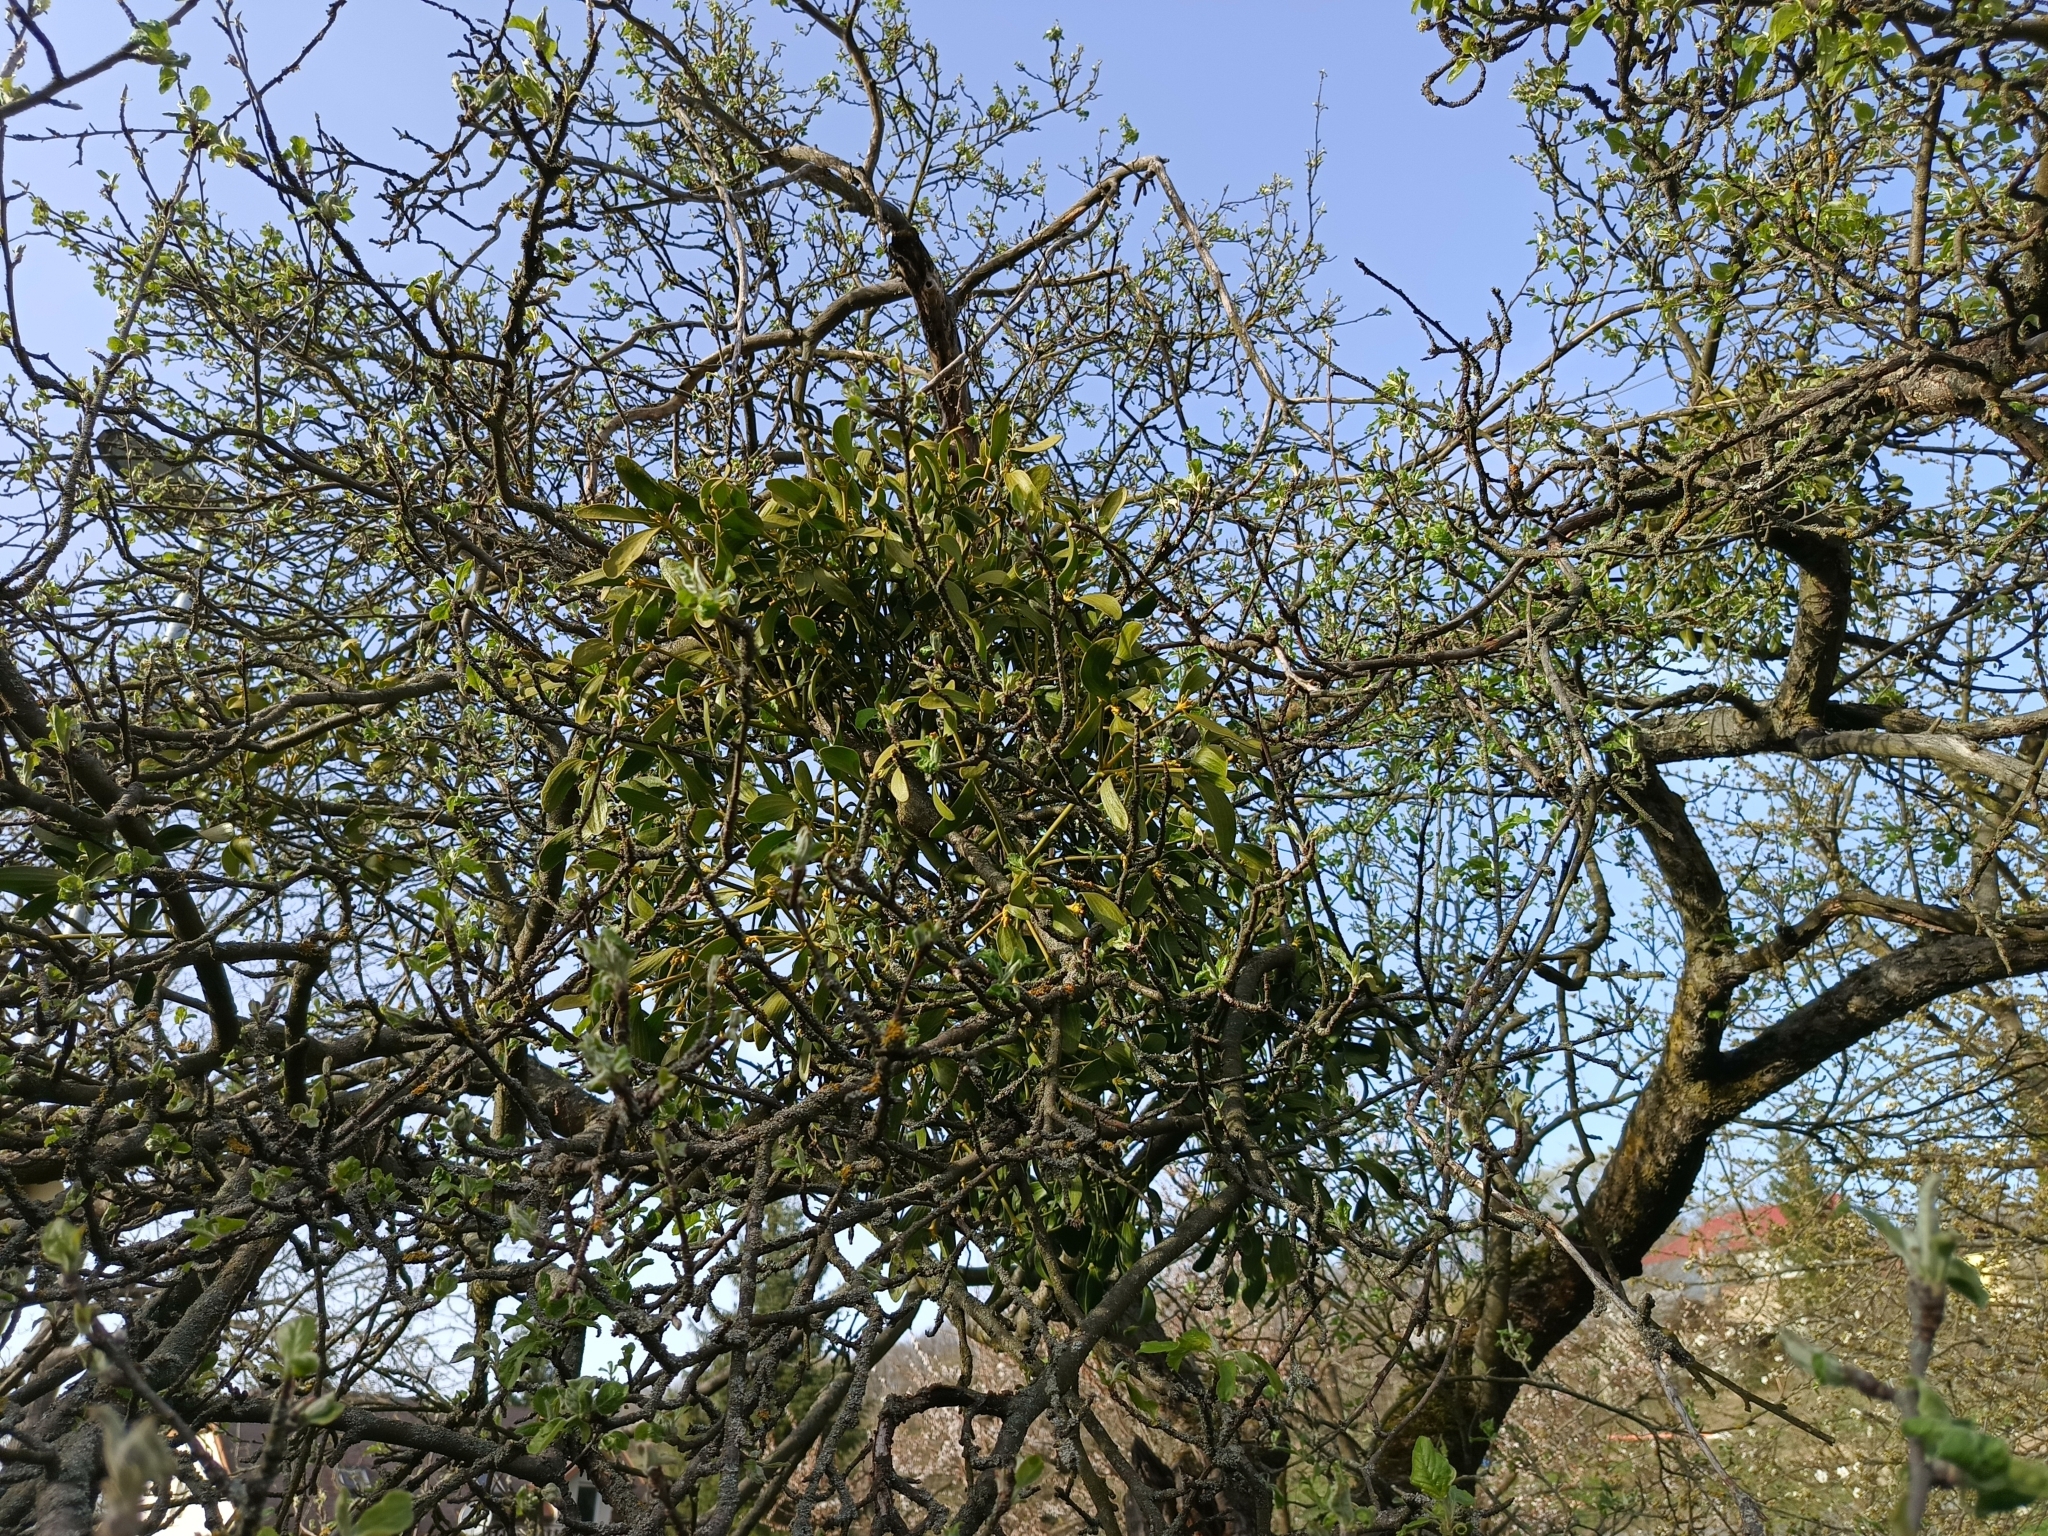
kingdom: Plantae
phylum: Tracheophyta
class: Magnoliopsida
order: Santalales
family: Viscaceae
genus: Viscum
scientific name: Viscum album
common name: Mistletoe
